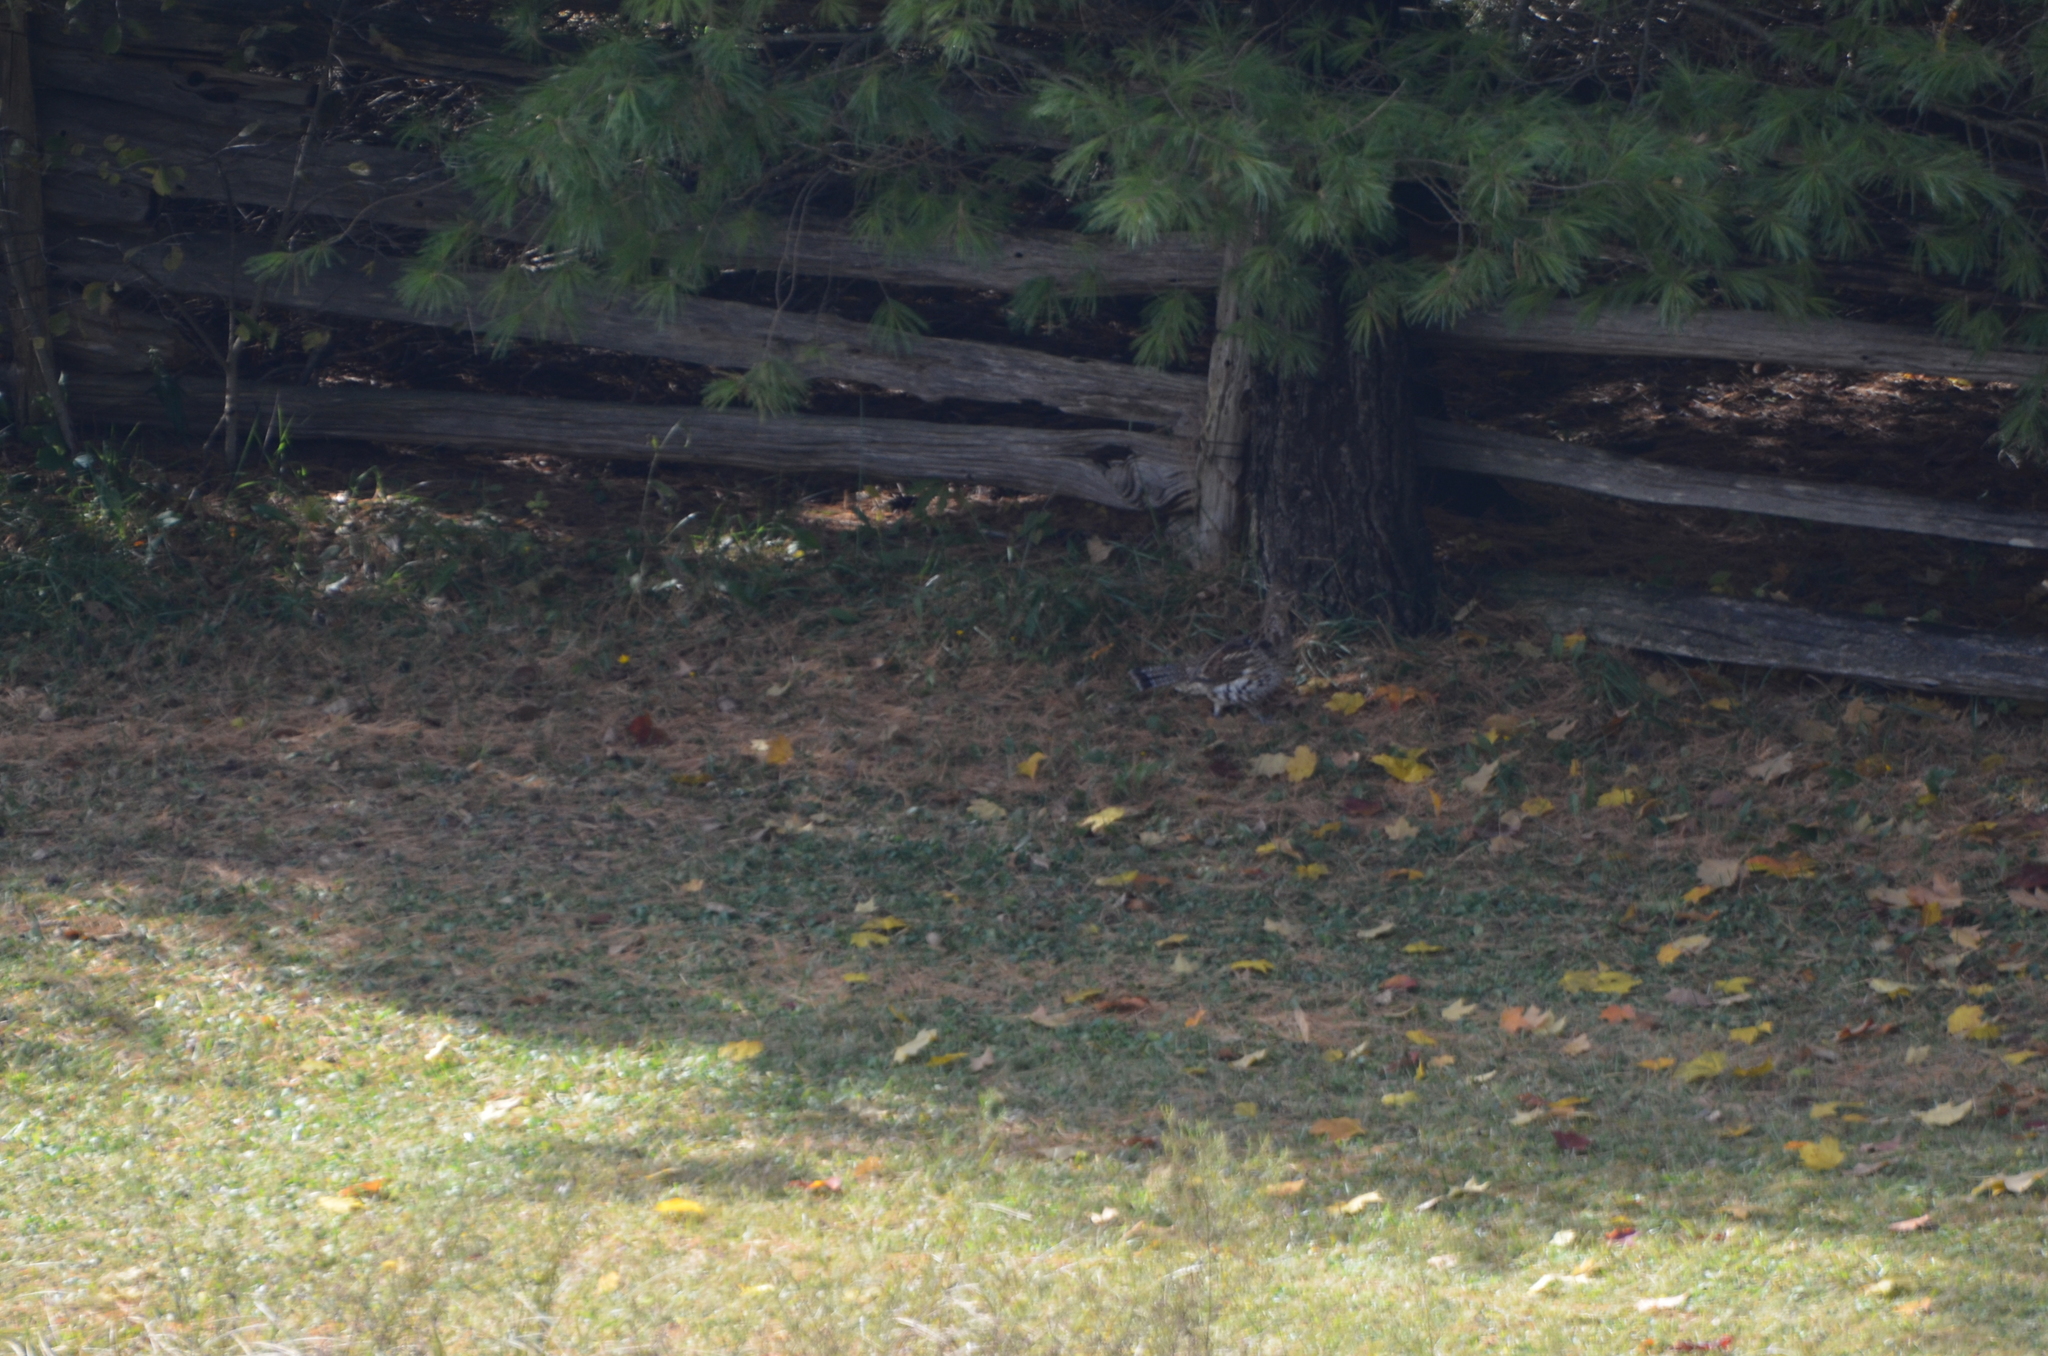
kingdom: Animalia
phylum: Chordata
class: Aves
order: Galliformes
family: Phasianidae
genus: Bonasa
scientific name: Bonasa umbellus
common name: Ruffed grouse
